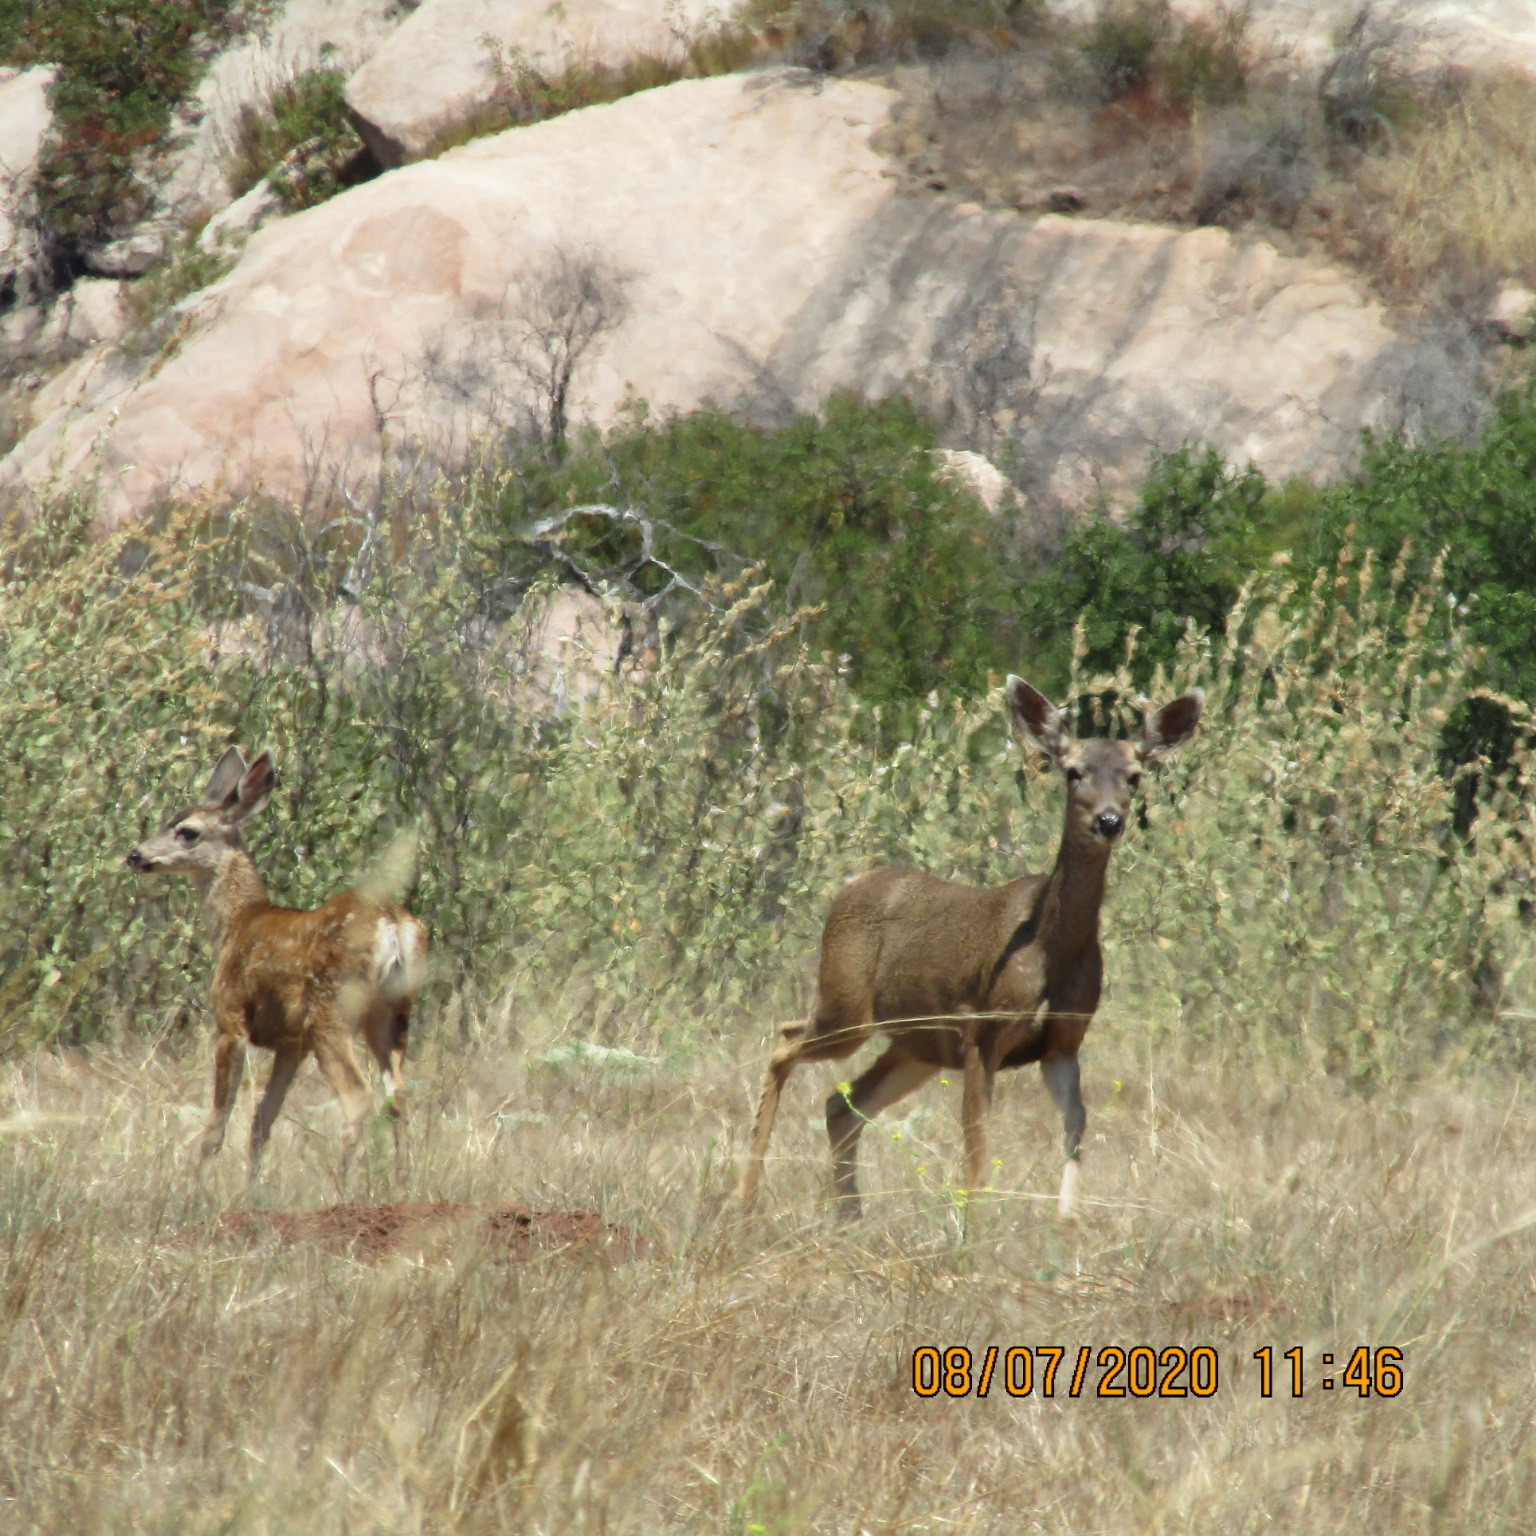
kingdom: Animalia
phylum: Chordata
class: Mammalia
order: Artiodactyla
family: Cervidae
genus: Odocoileus
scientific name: Odocoileus hemionus
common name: Mule deer
